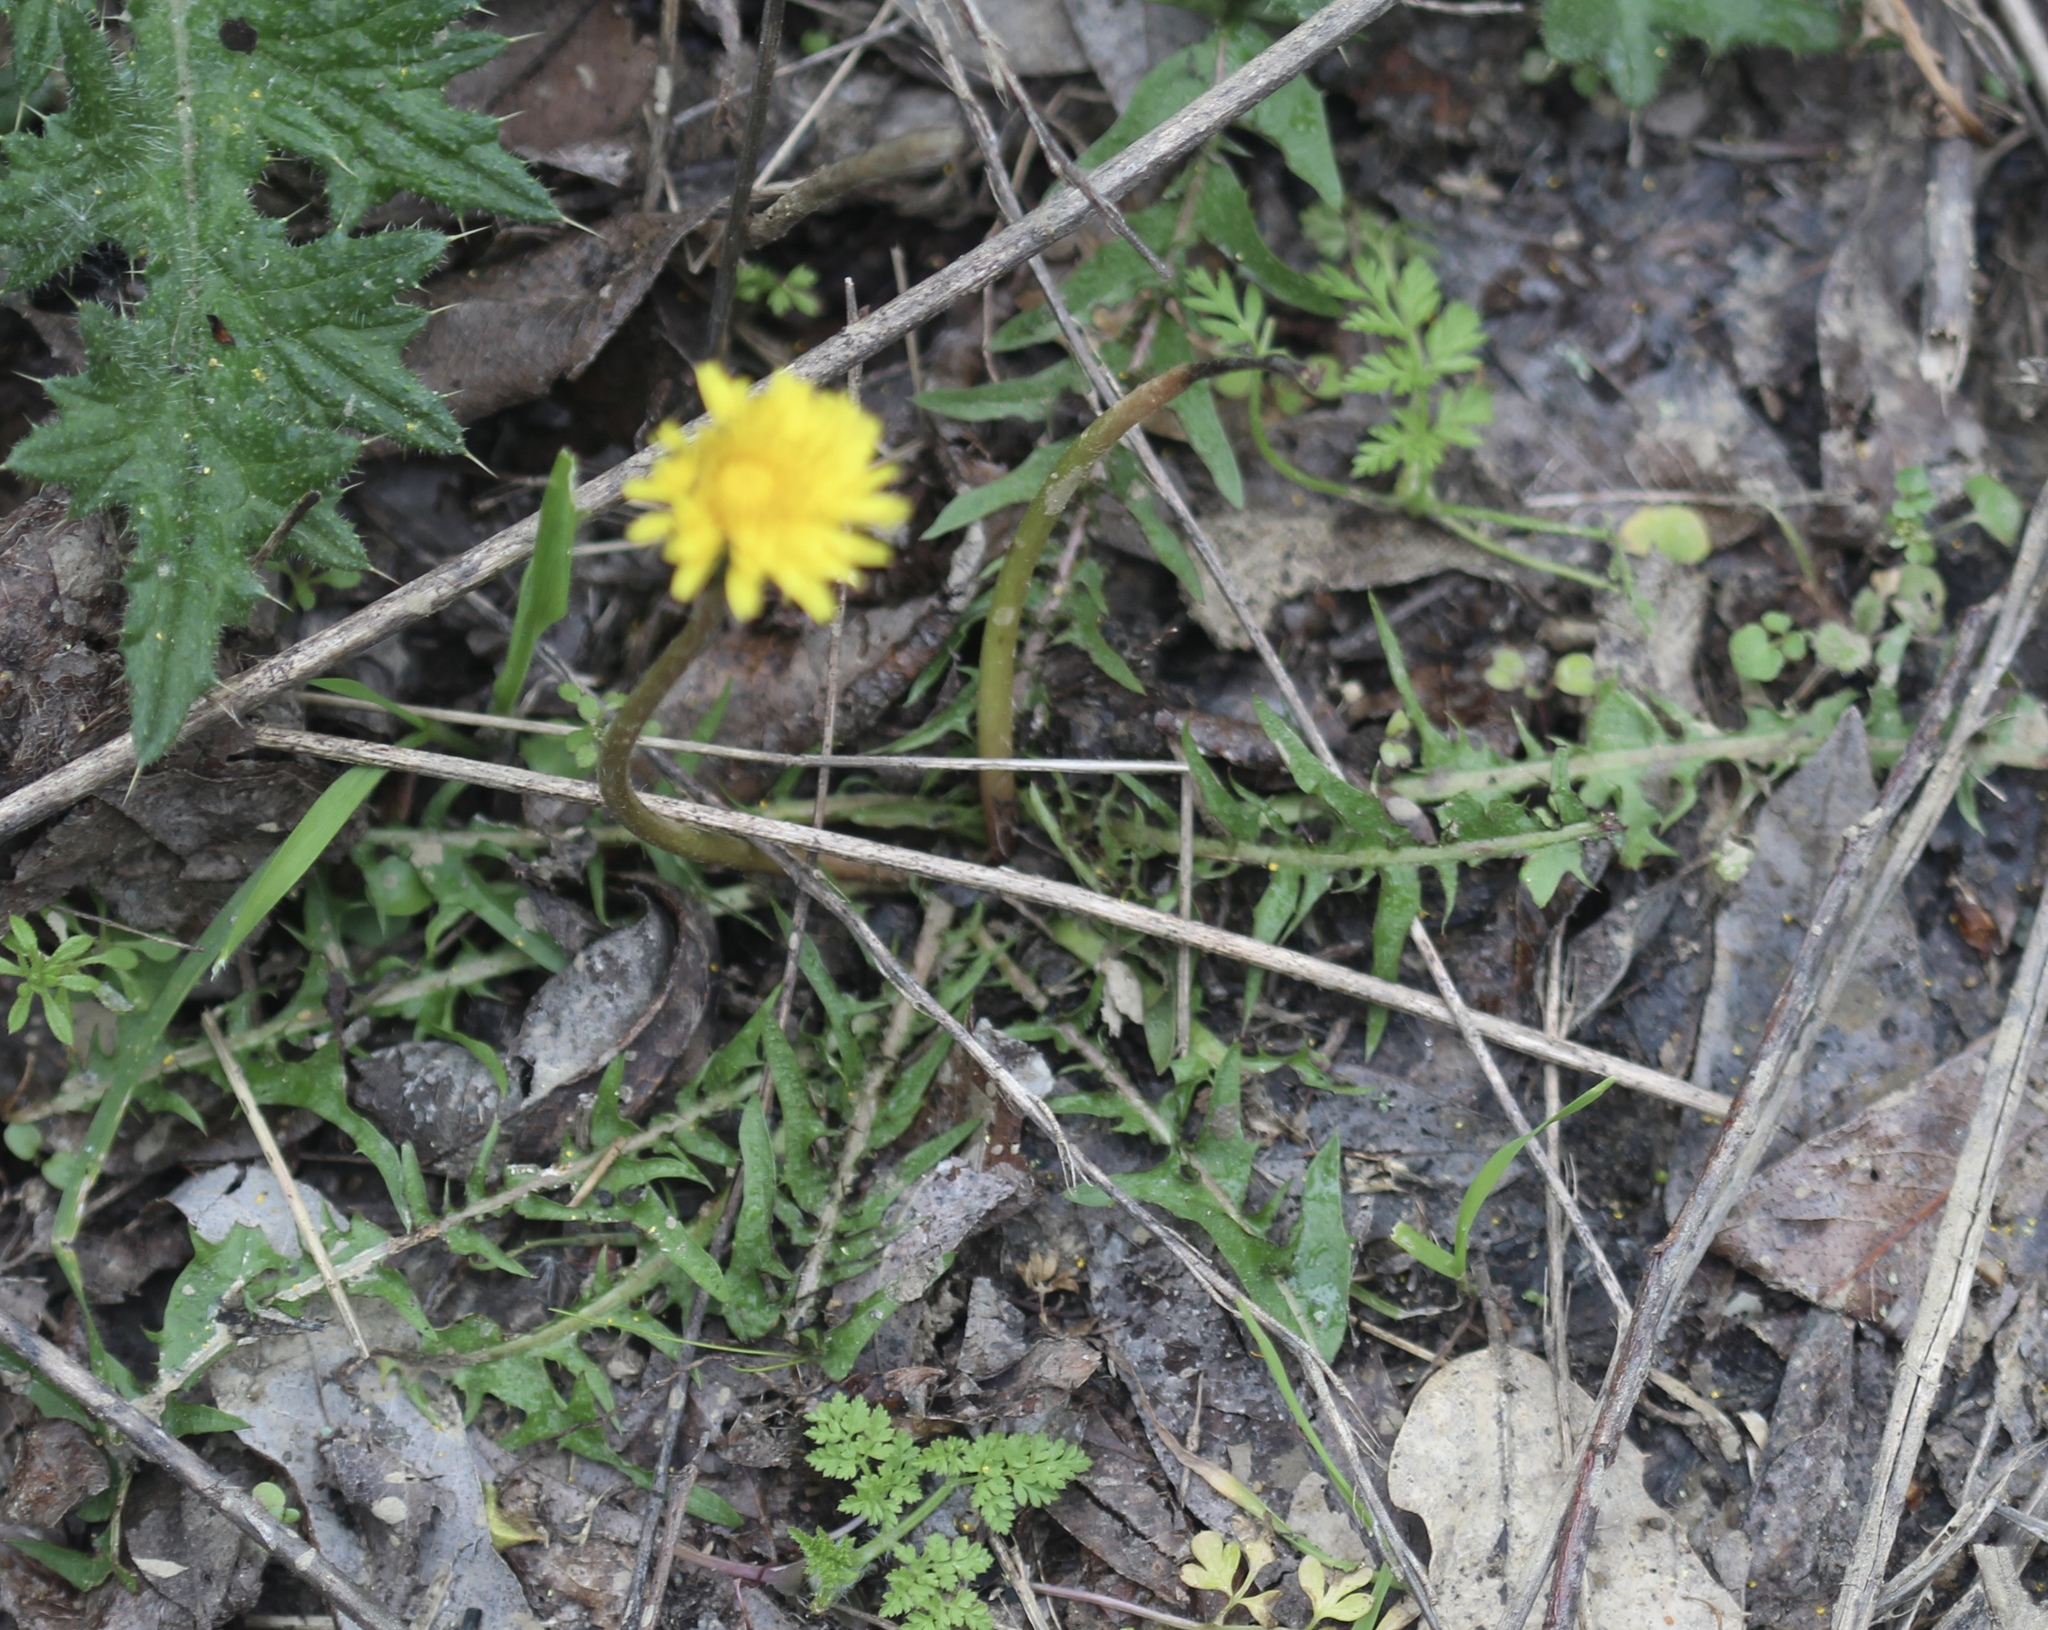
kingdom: Plantae
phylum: Tracheophyta
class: Magnoliopsida
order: Asterales
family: Asteraceae
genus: Taraxacum
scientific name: Taraxacum officinale
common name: Common dandelion
